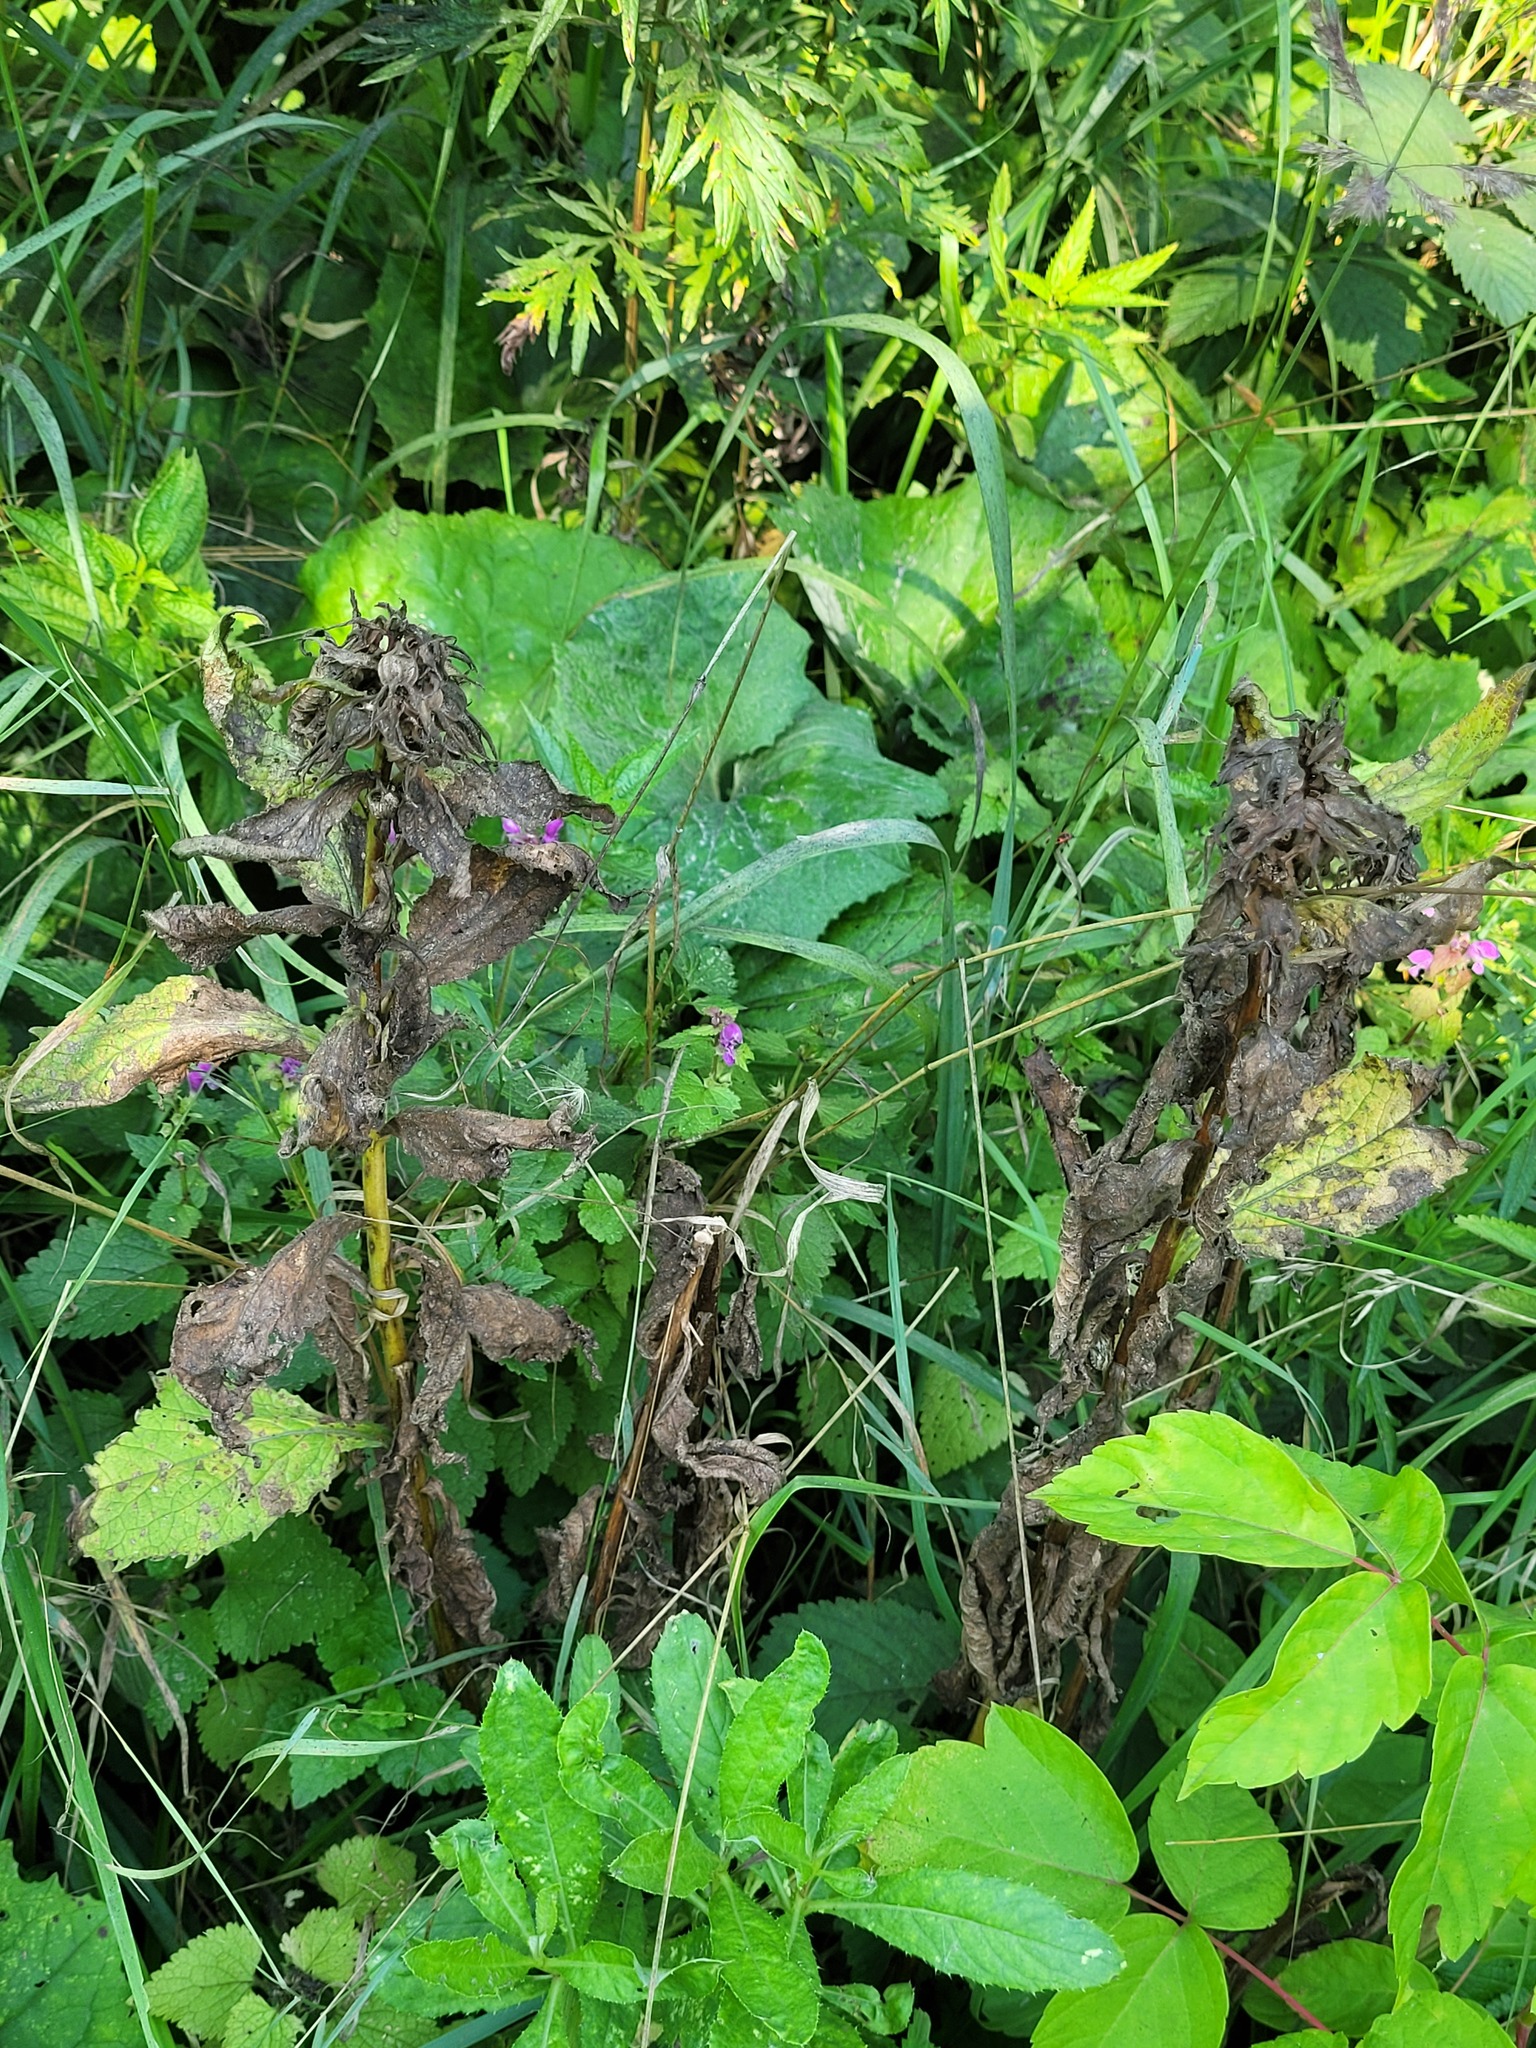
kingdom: Plantae
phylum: Tracheophyta
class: Magnoliopsida
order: Asterales
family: Campanulaceae
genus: Campanula
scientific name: Campanula latifolia
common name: Giant bellflower
